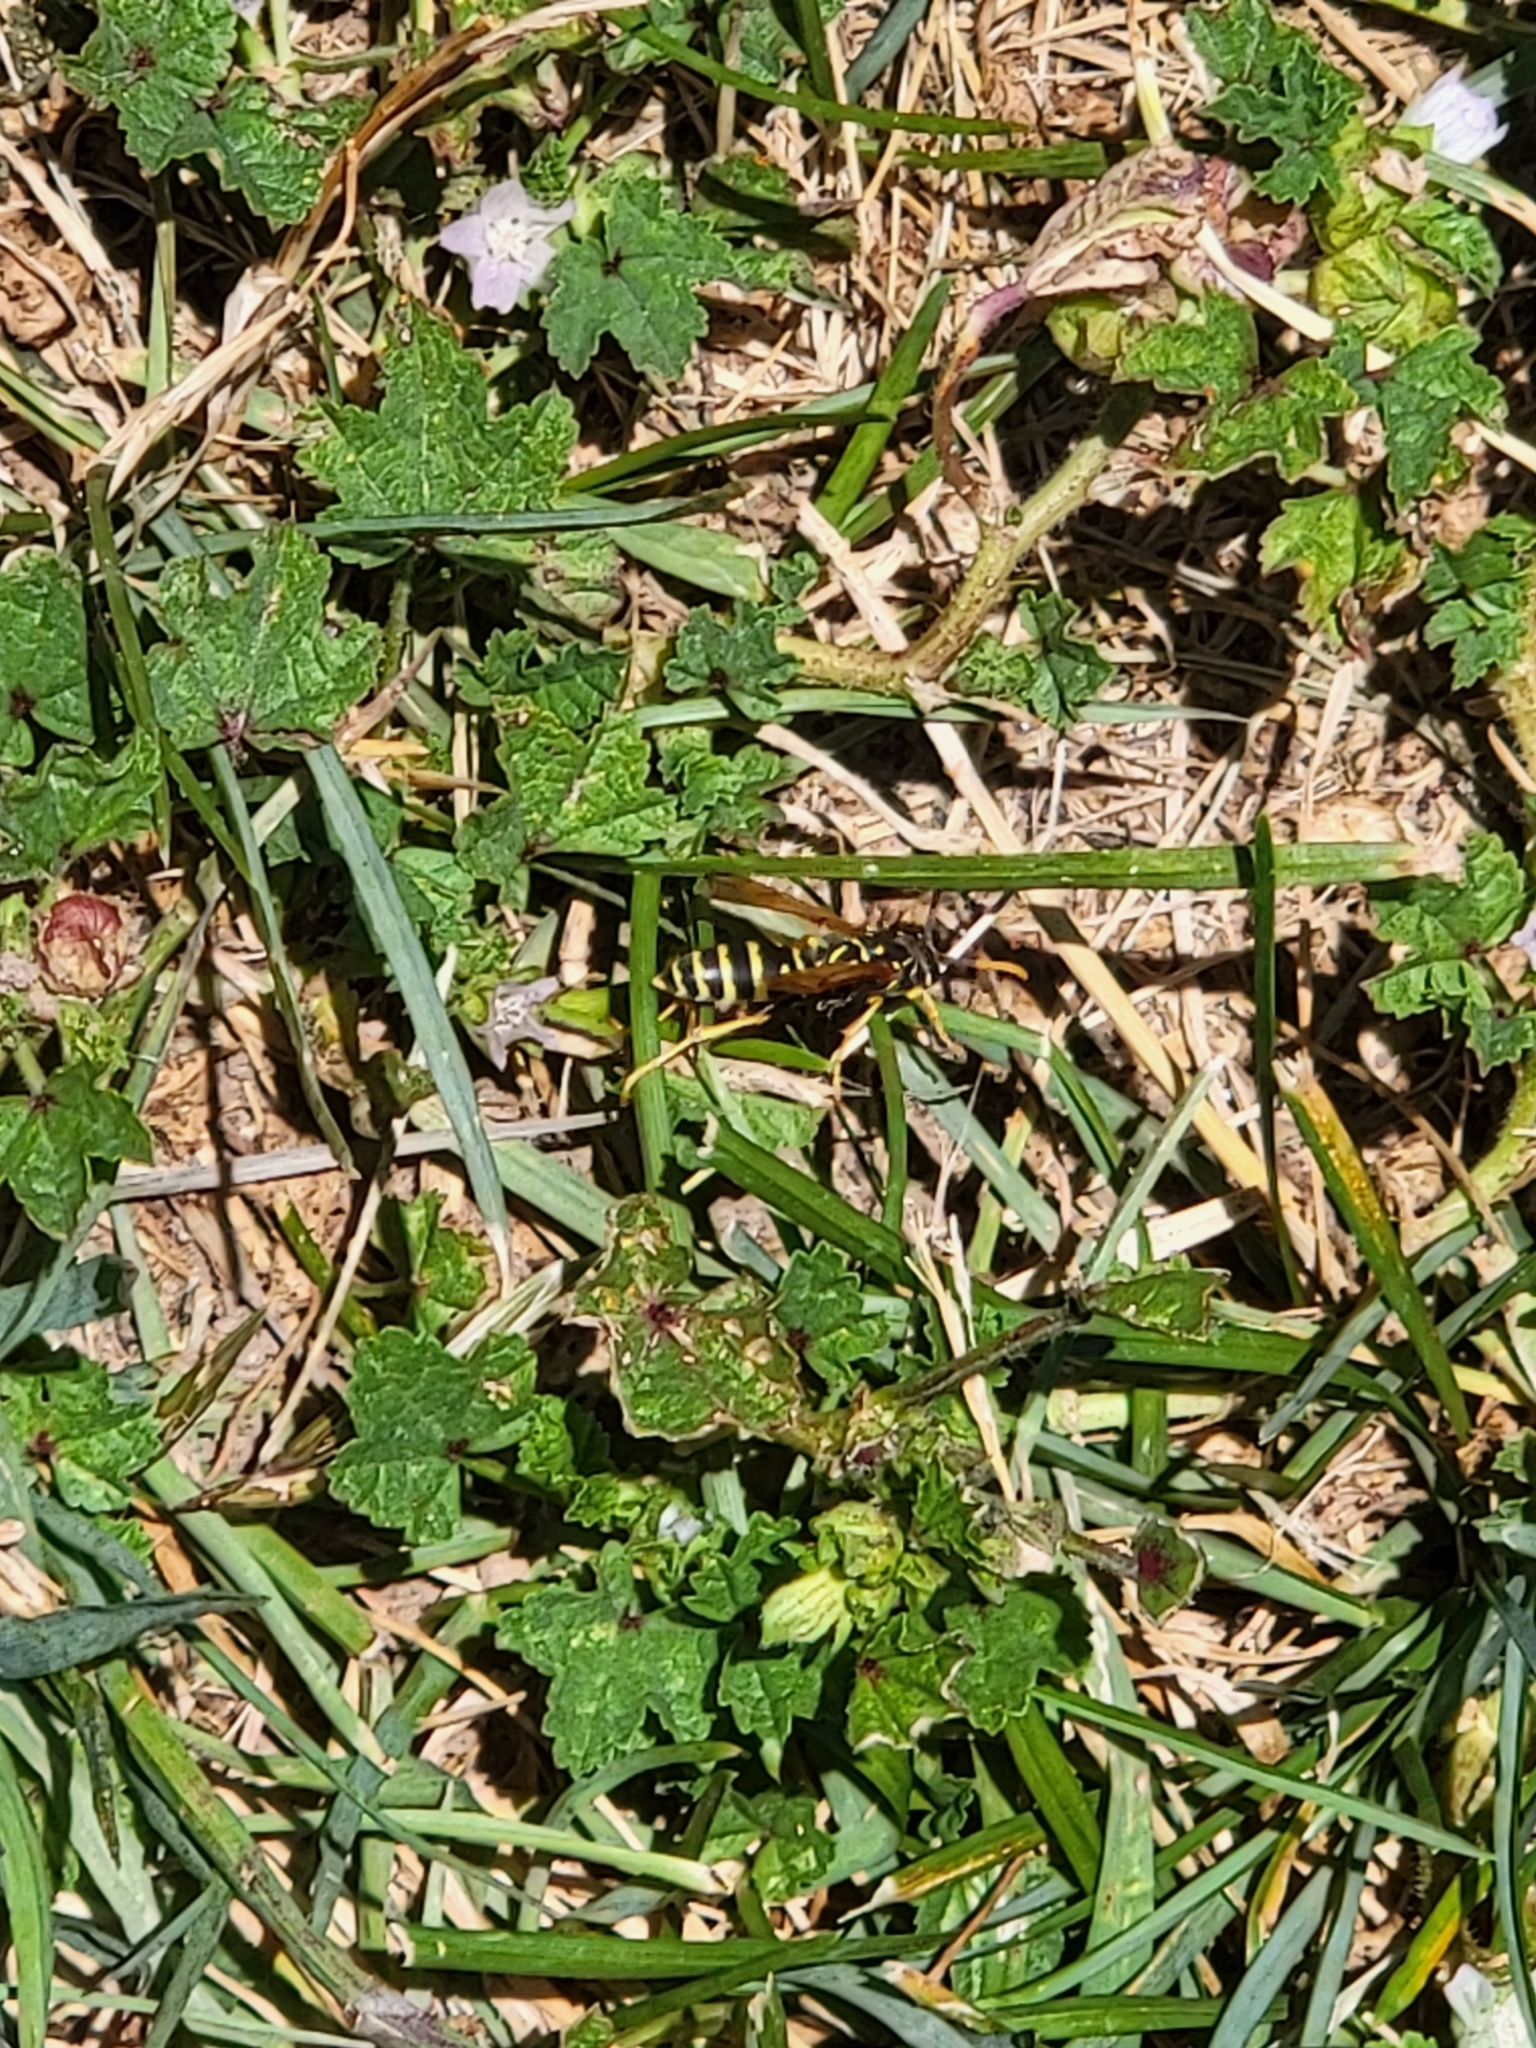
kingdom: Animalia
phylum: Arthropoda
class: Insecta
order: Hymenoptera
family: Eumenidae
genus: Polistes
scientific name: Polistes dominula
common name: Paper wasp
